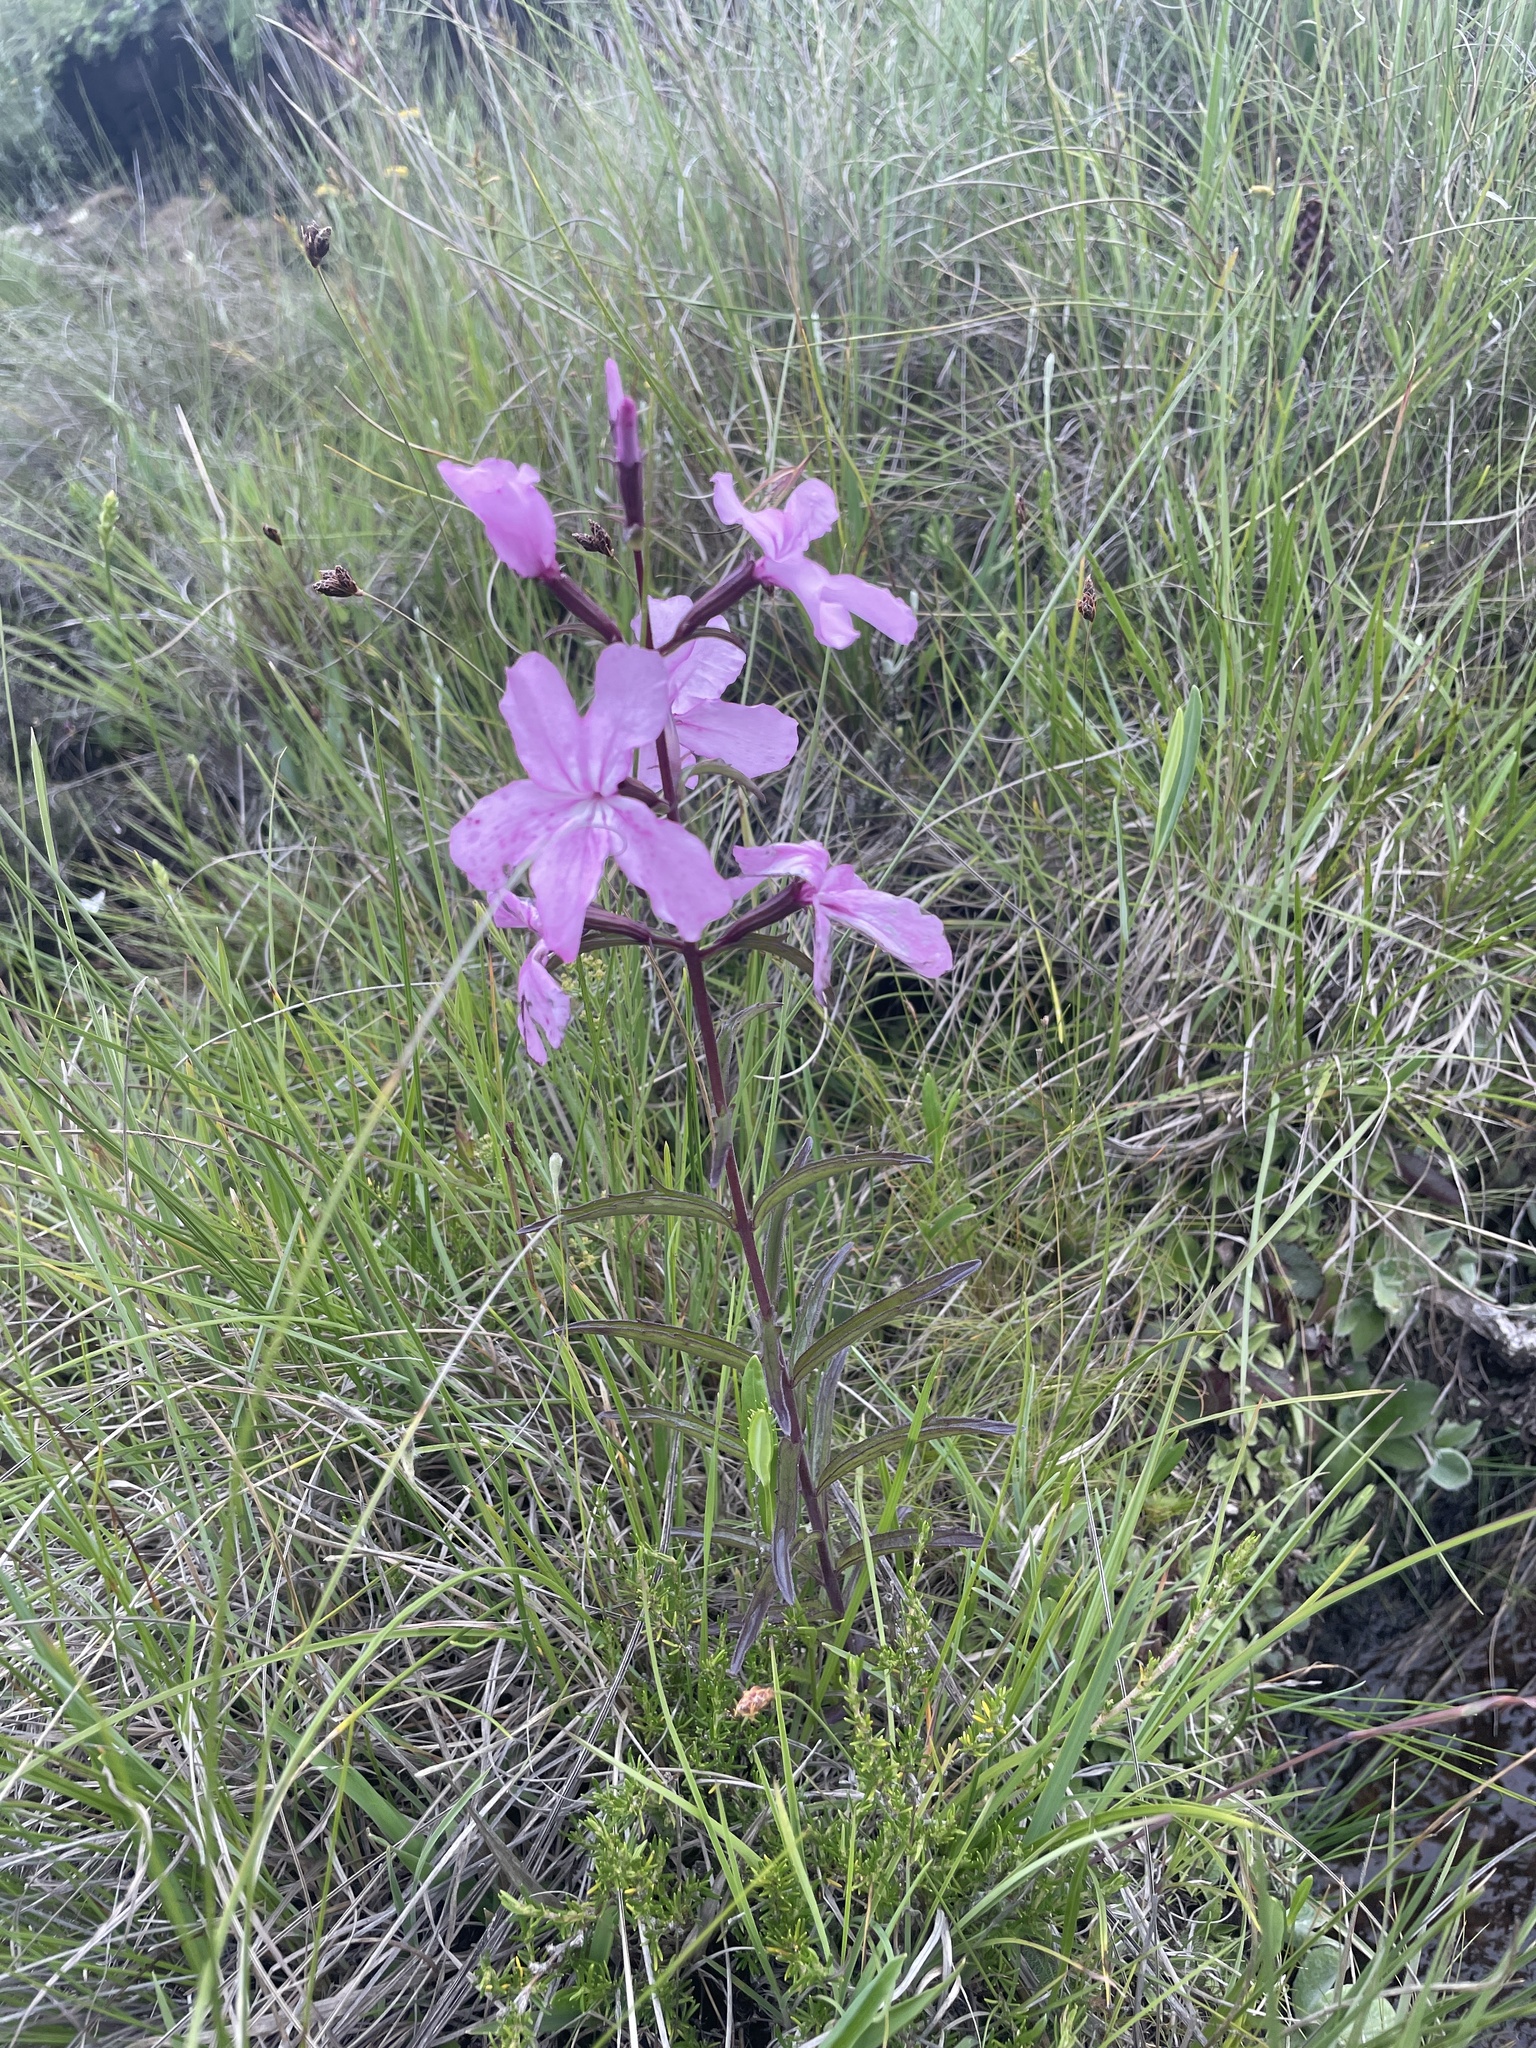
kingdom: Plantae
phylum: Tracheophyta
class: Magnoliopsida
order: Lamiales
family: Orobanchaceae
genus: Cycnium
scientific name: Cycnium racemosum
